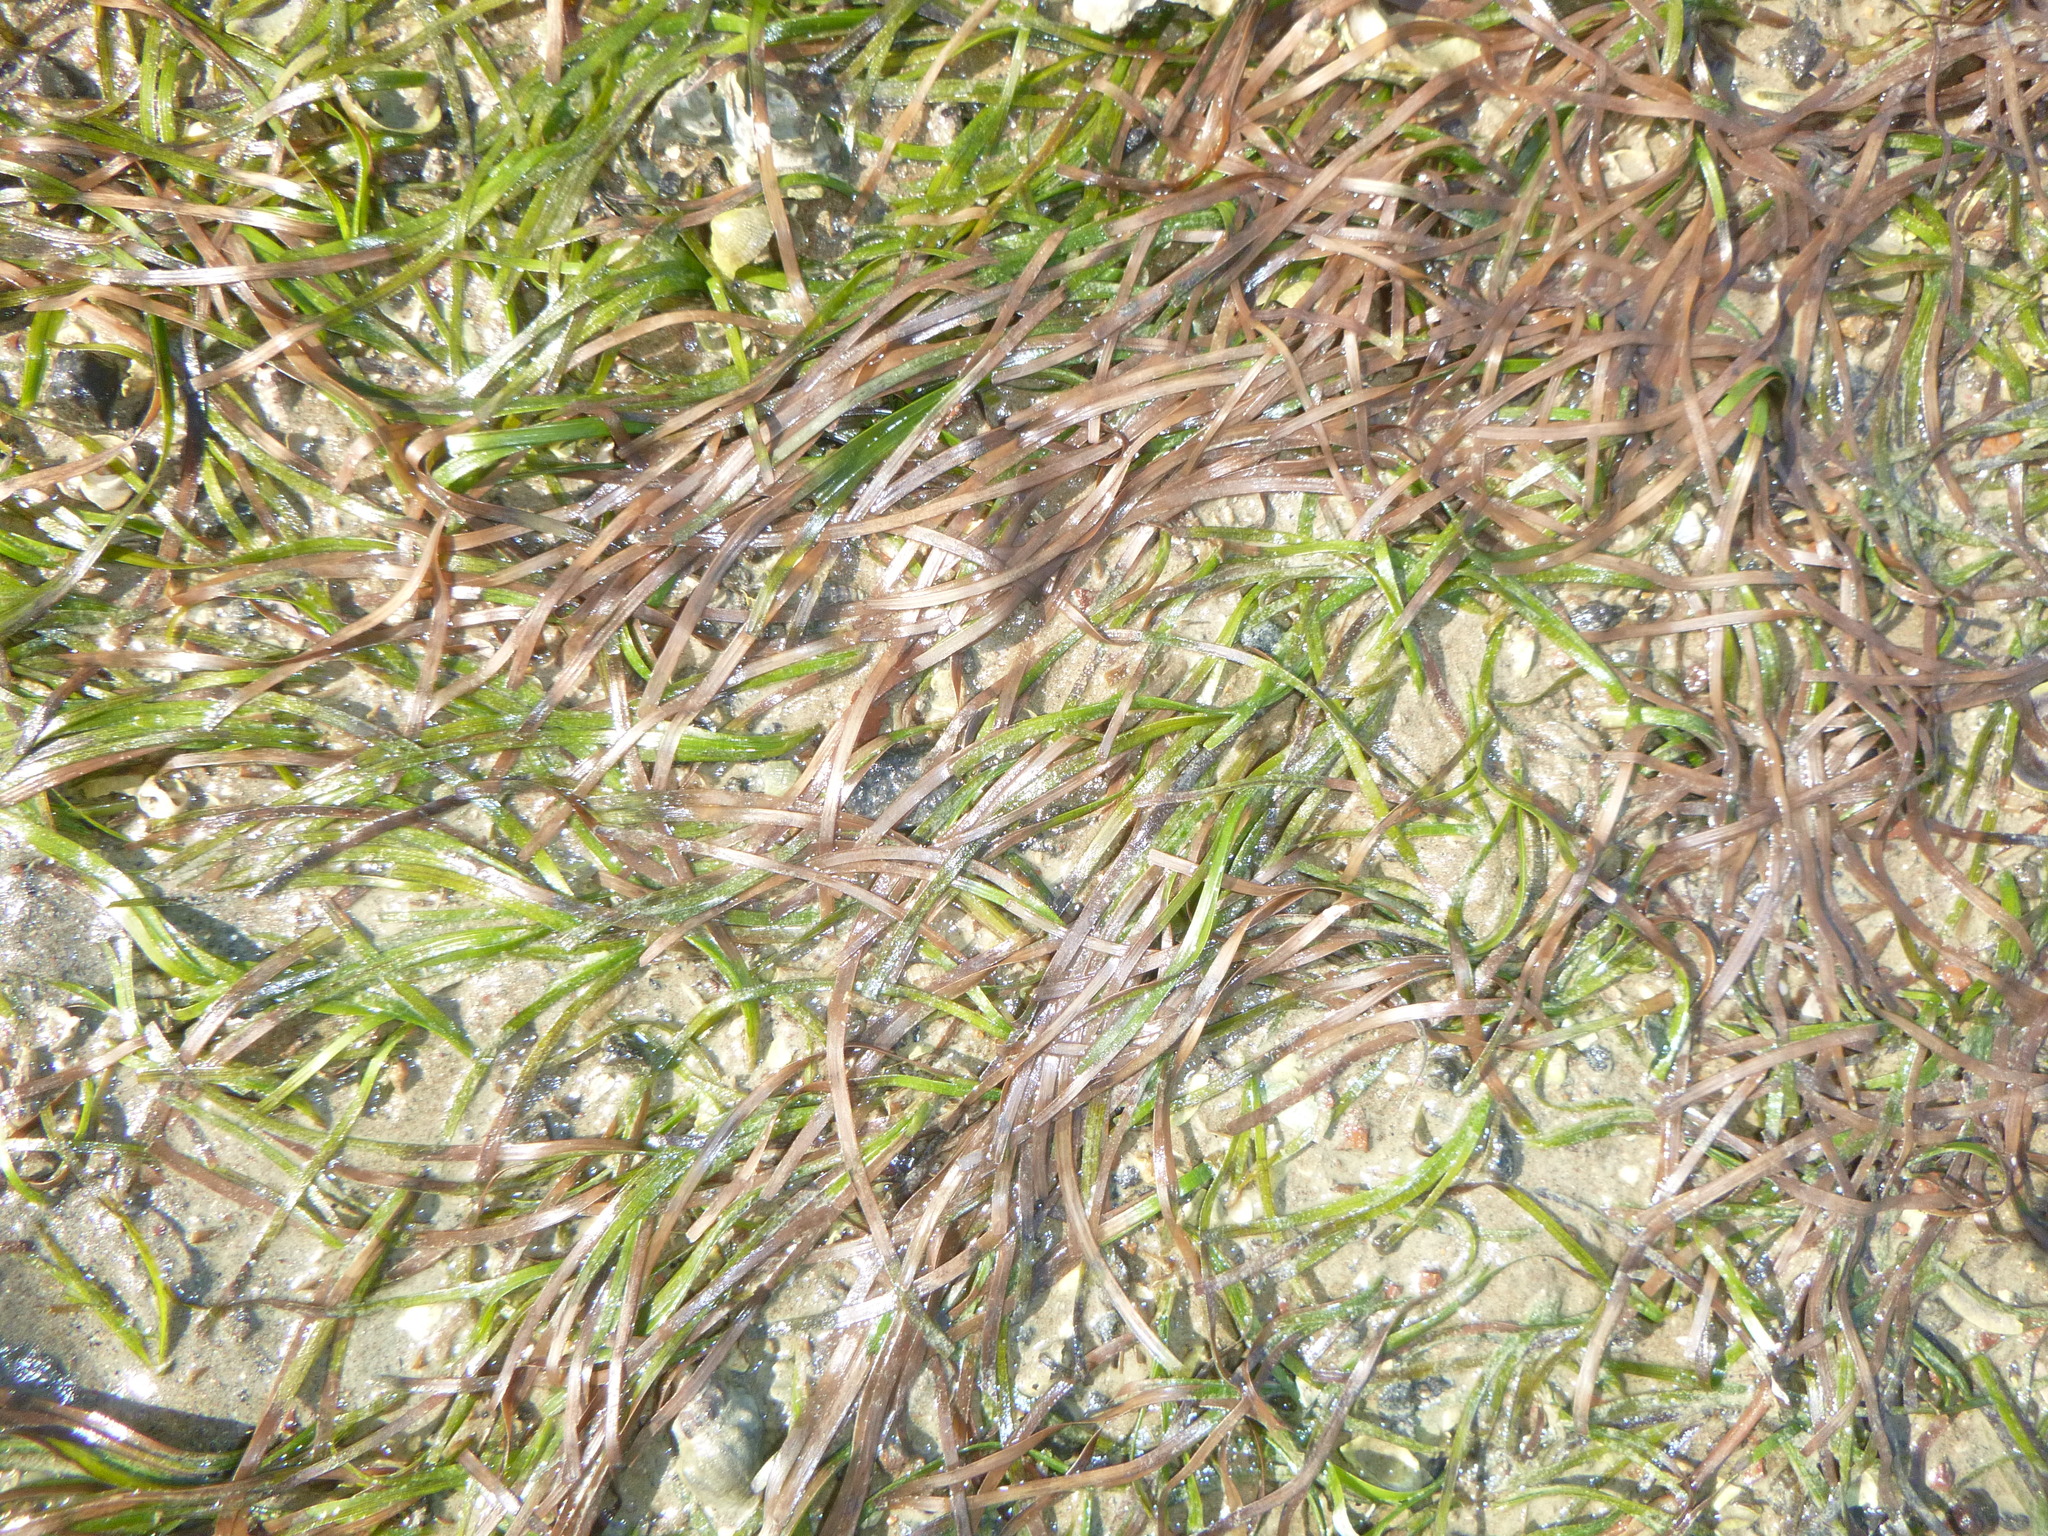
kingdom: Plantae
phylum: Tracheophyta
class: Liliopsida
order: Alismatales
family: Zosteraceae
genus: Zostera
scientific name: Zostera novazelandica
